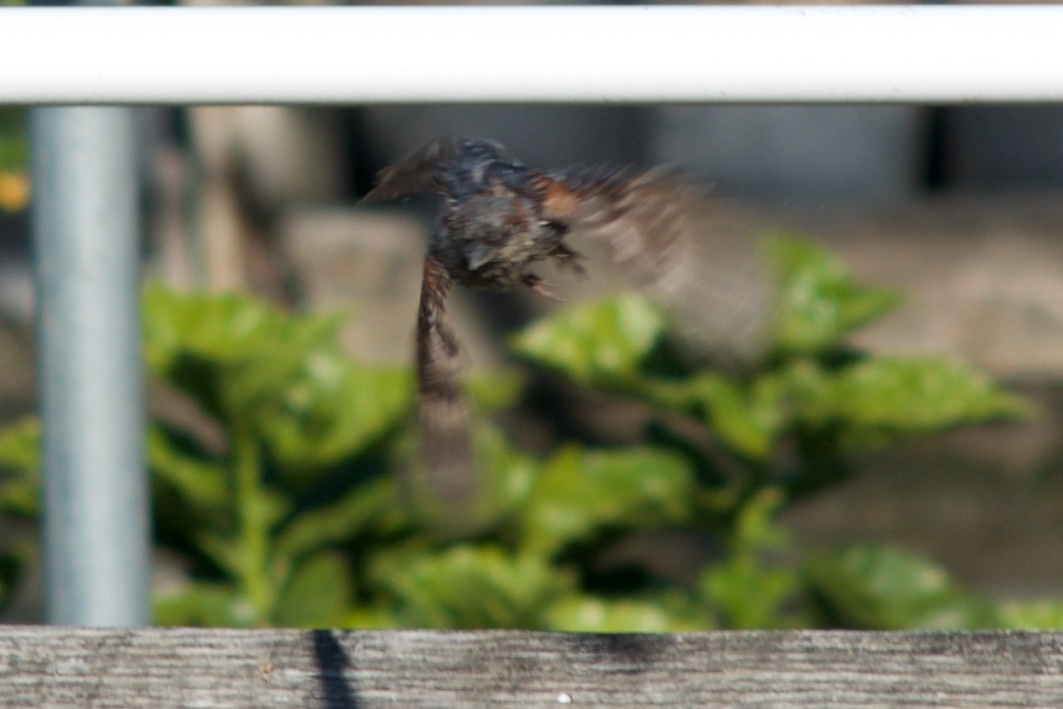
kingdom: Animalia
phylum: Chordata
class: Aves
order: Passeriformes
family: Passeridae
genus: Passer
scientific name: Passer domesticus
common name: House sparrow
